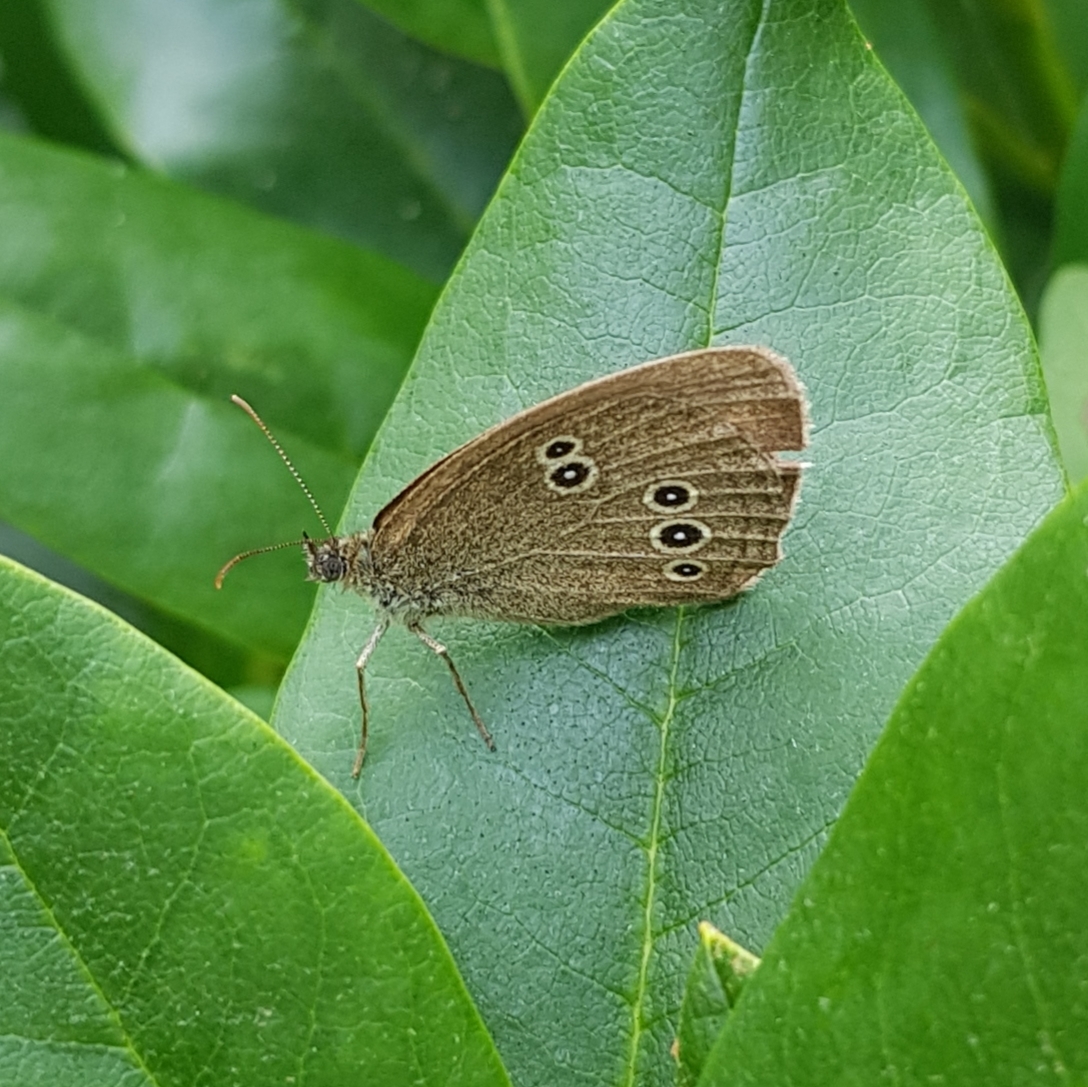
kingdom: Animalia
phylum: Arthropoda
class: Insecta
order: Lepidoptera
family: Nymphalidae
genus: Aphantopus
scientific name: Aphantopus hyperantus
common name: Ringlet
